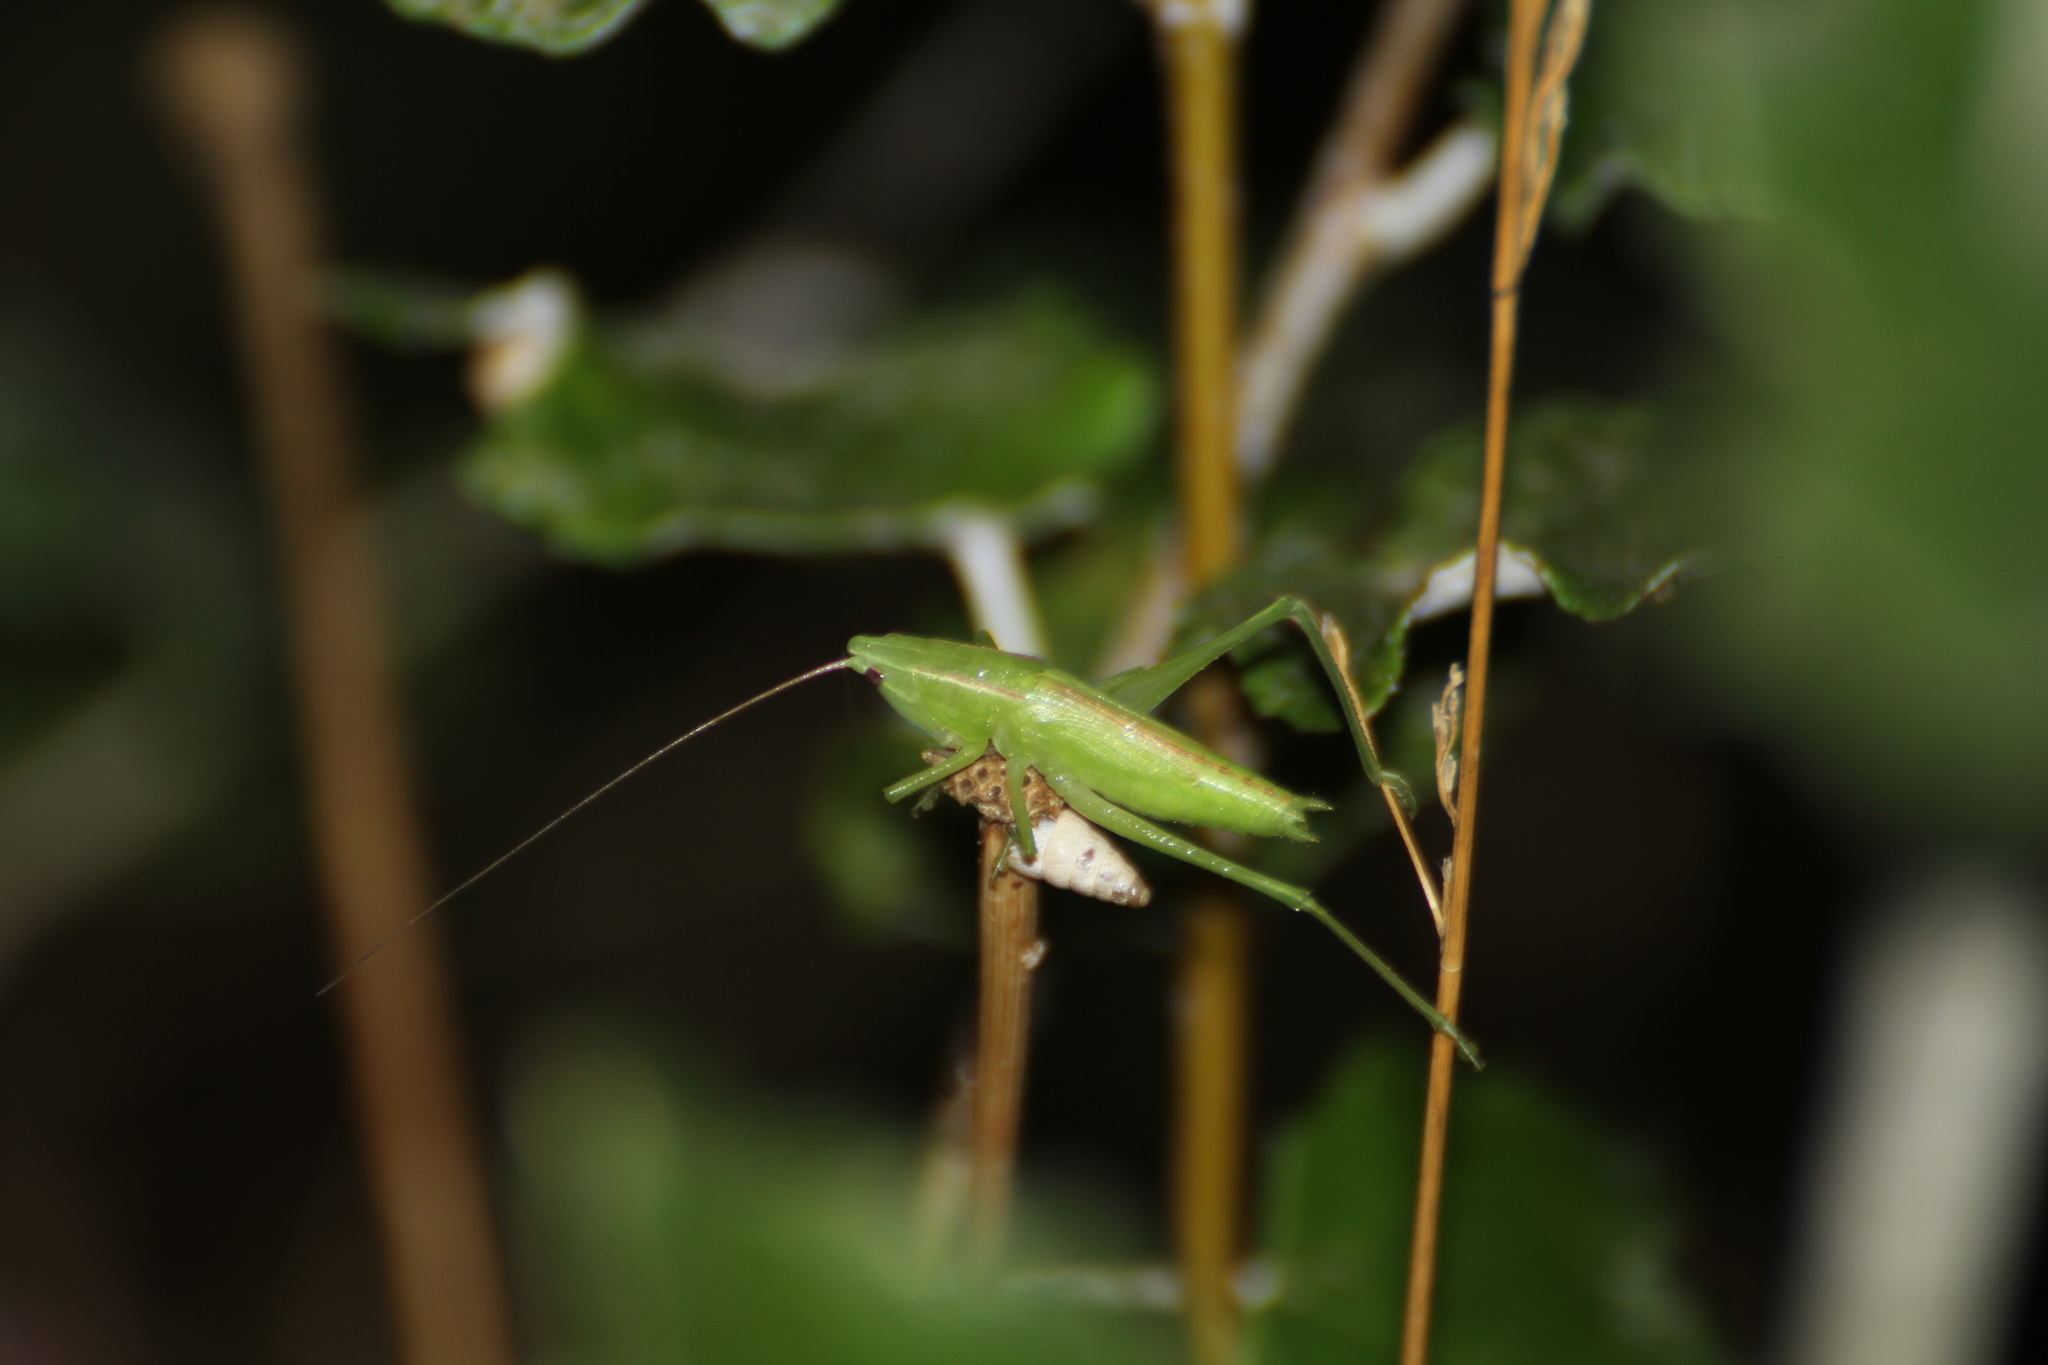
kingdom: Animalia
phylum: Arthropoda
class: Insecta
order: Orthoptera
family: Tettigoniidae
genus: Ruspolia
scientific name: Ruspolia nitidula
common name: Large conehead
